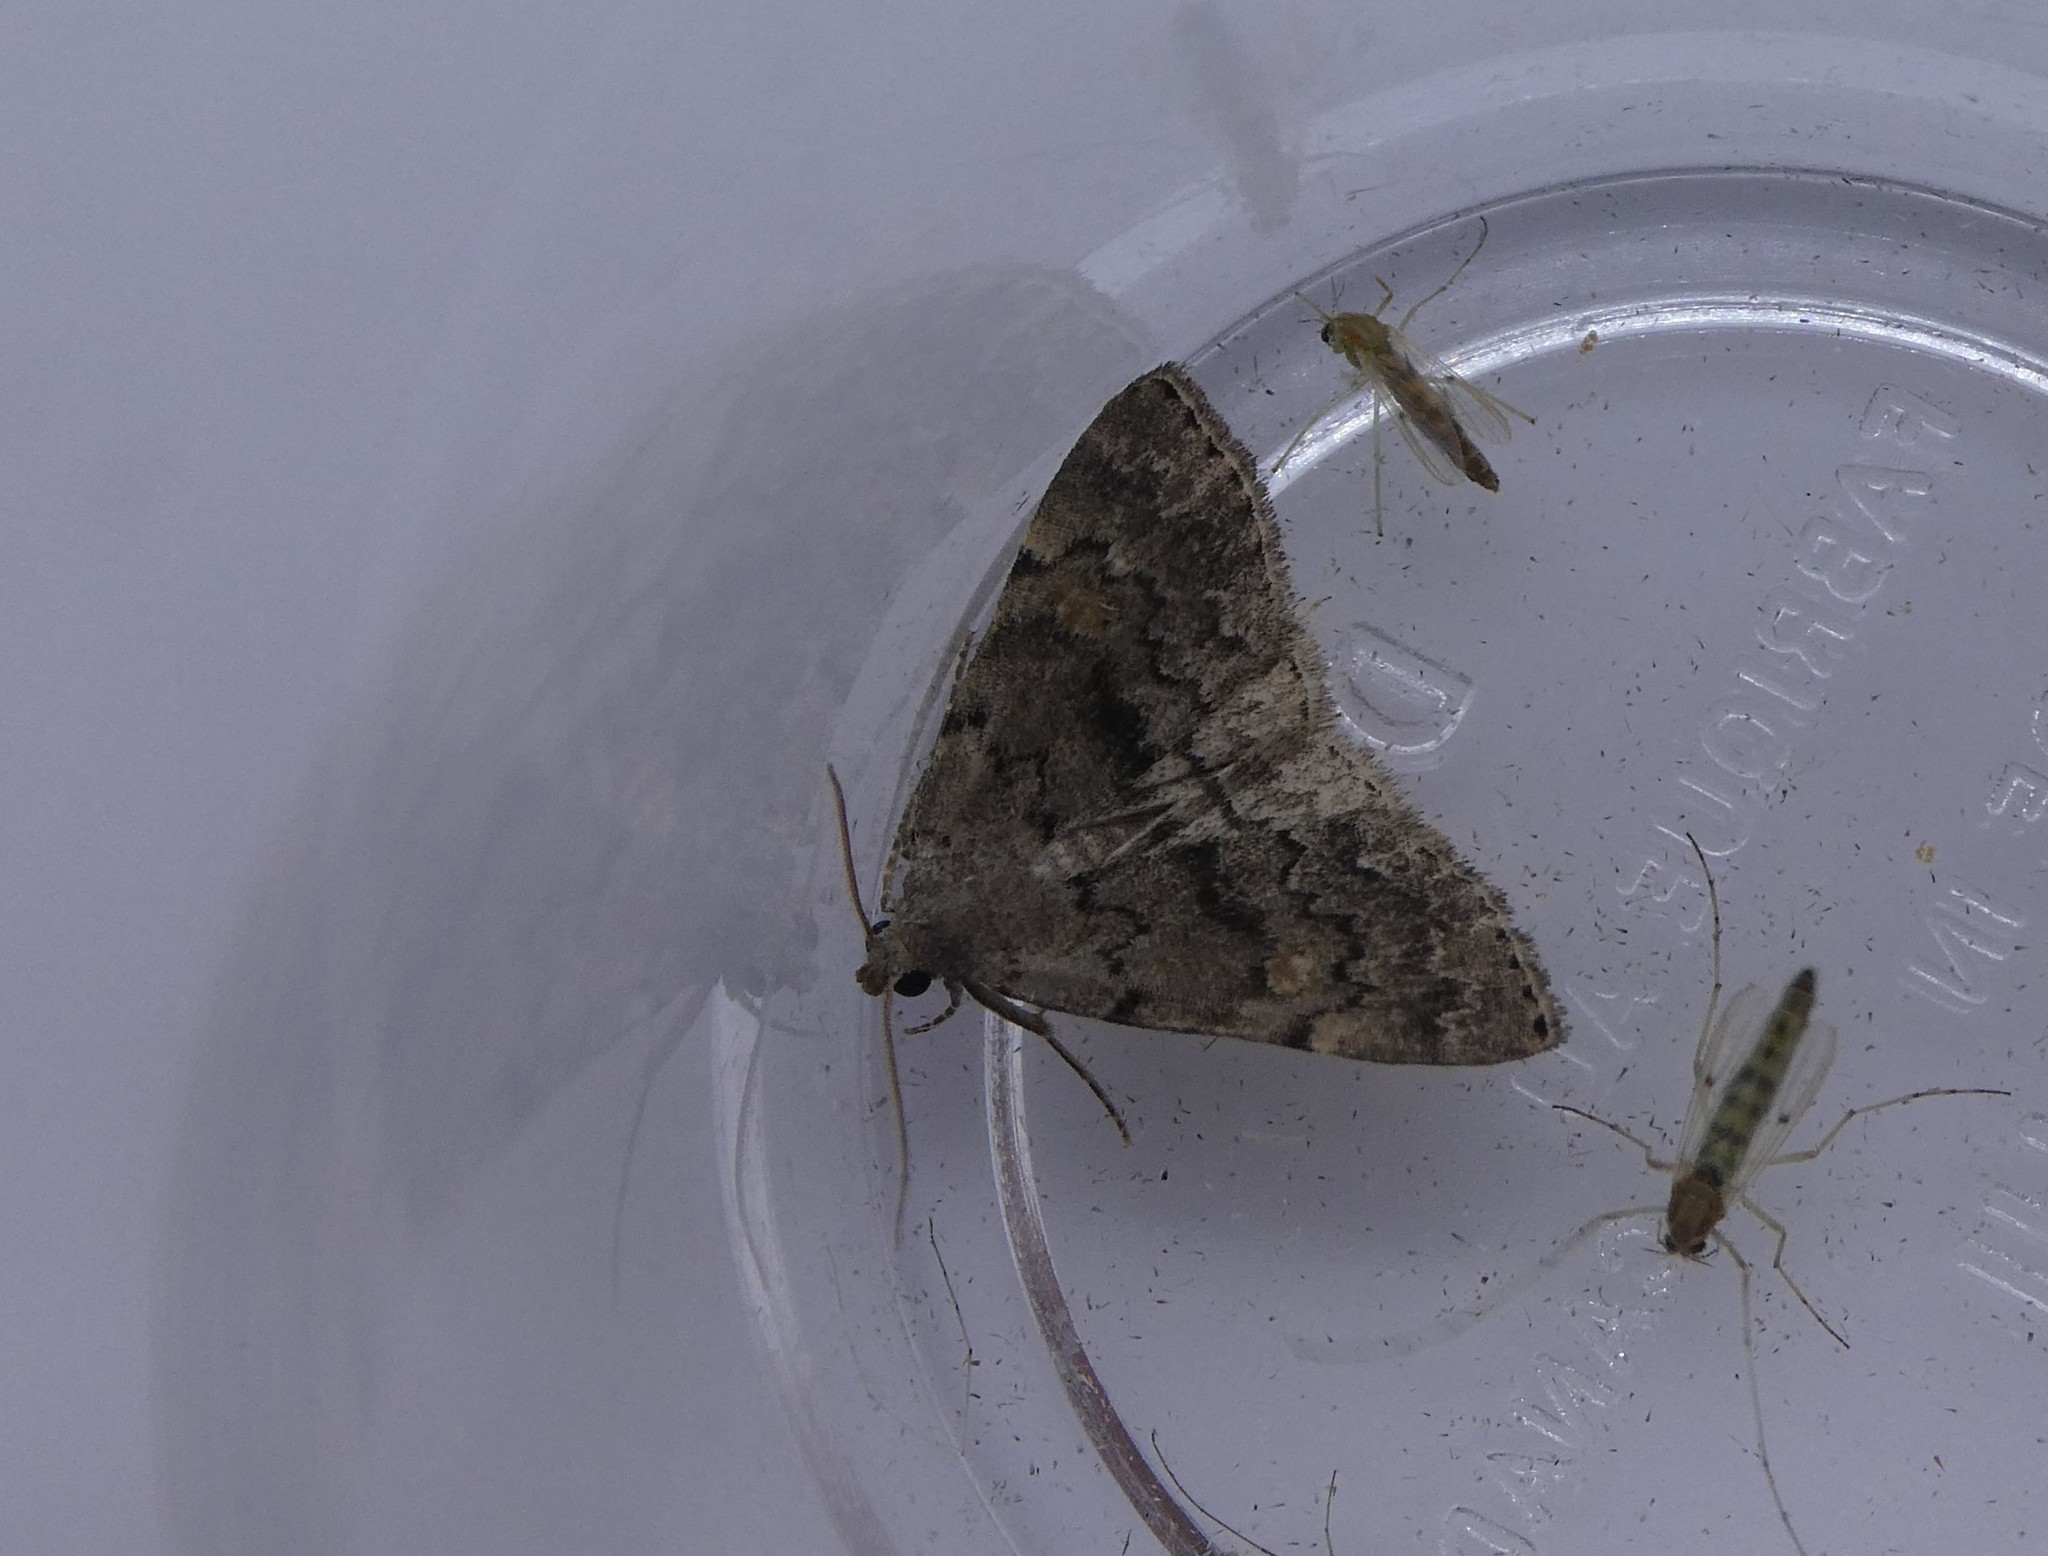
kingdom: Animalia
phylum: Arthropoda
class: Insecta
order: Lepidoptera
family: Erebidae
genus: Idia
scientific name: Idia aemula
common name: Common idia moth
